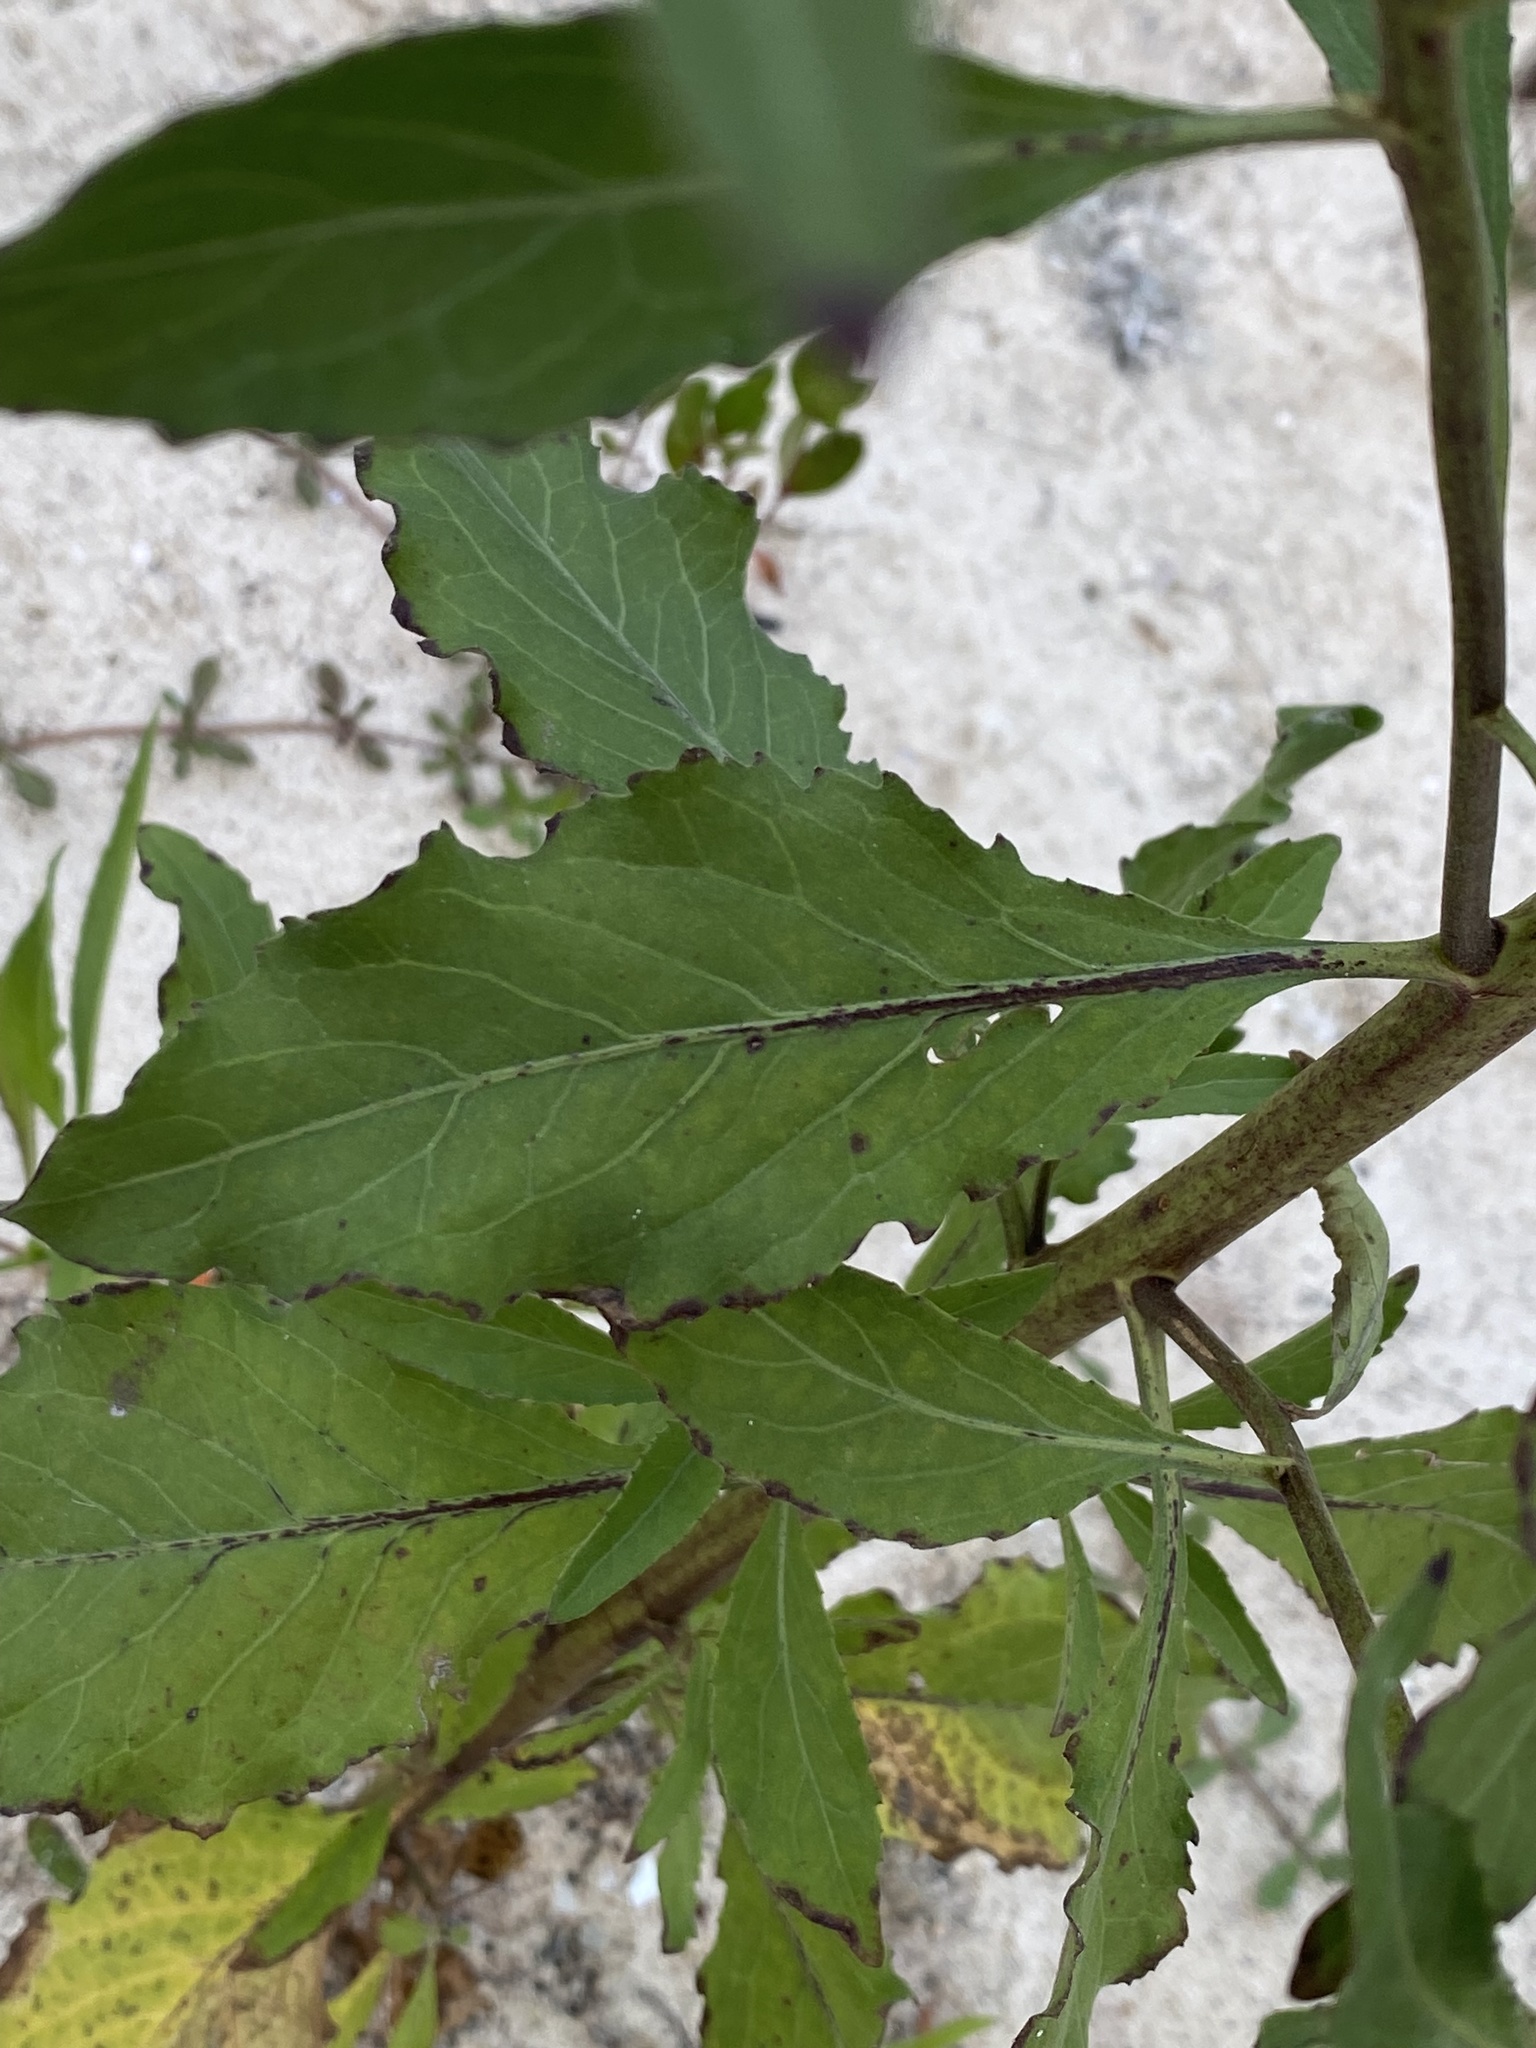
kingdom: Plantae
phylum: Tracheophyta
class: Magnoliopsida
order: Asterales
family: Asteraceae
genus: Pluchea
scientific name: Pluchea odorata
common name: Saltmarsh fleabane
